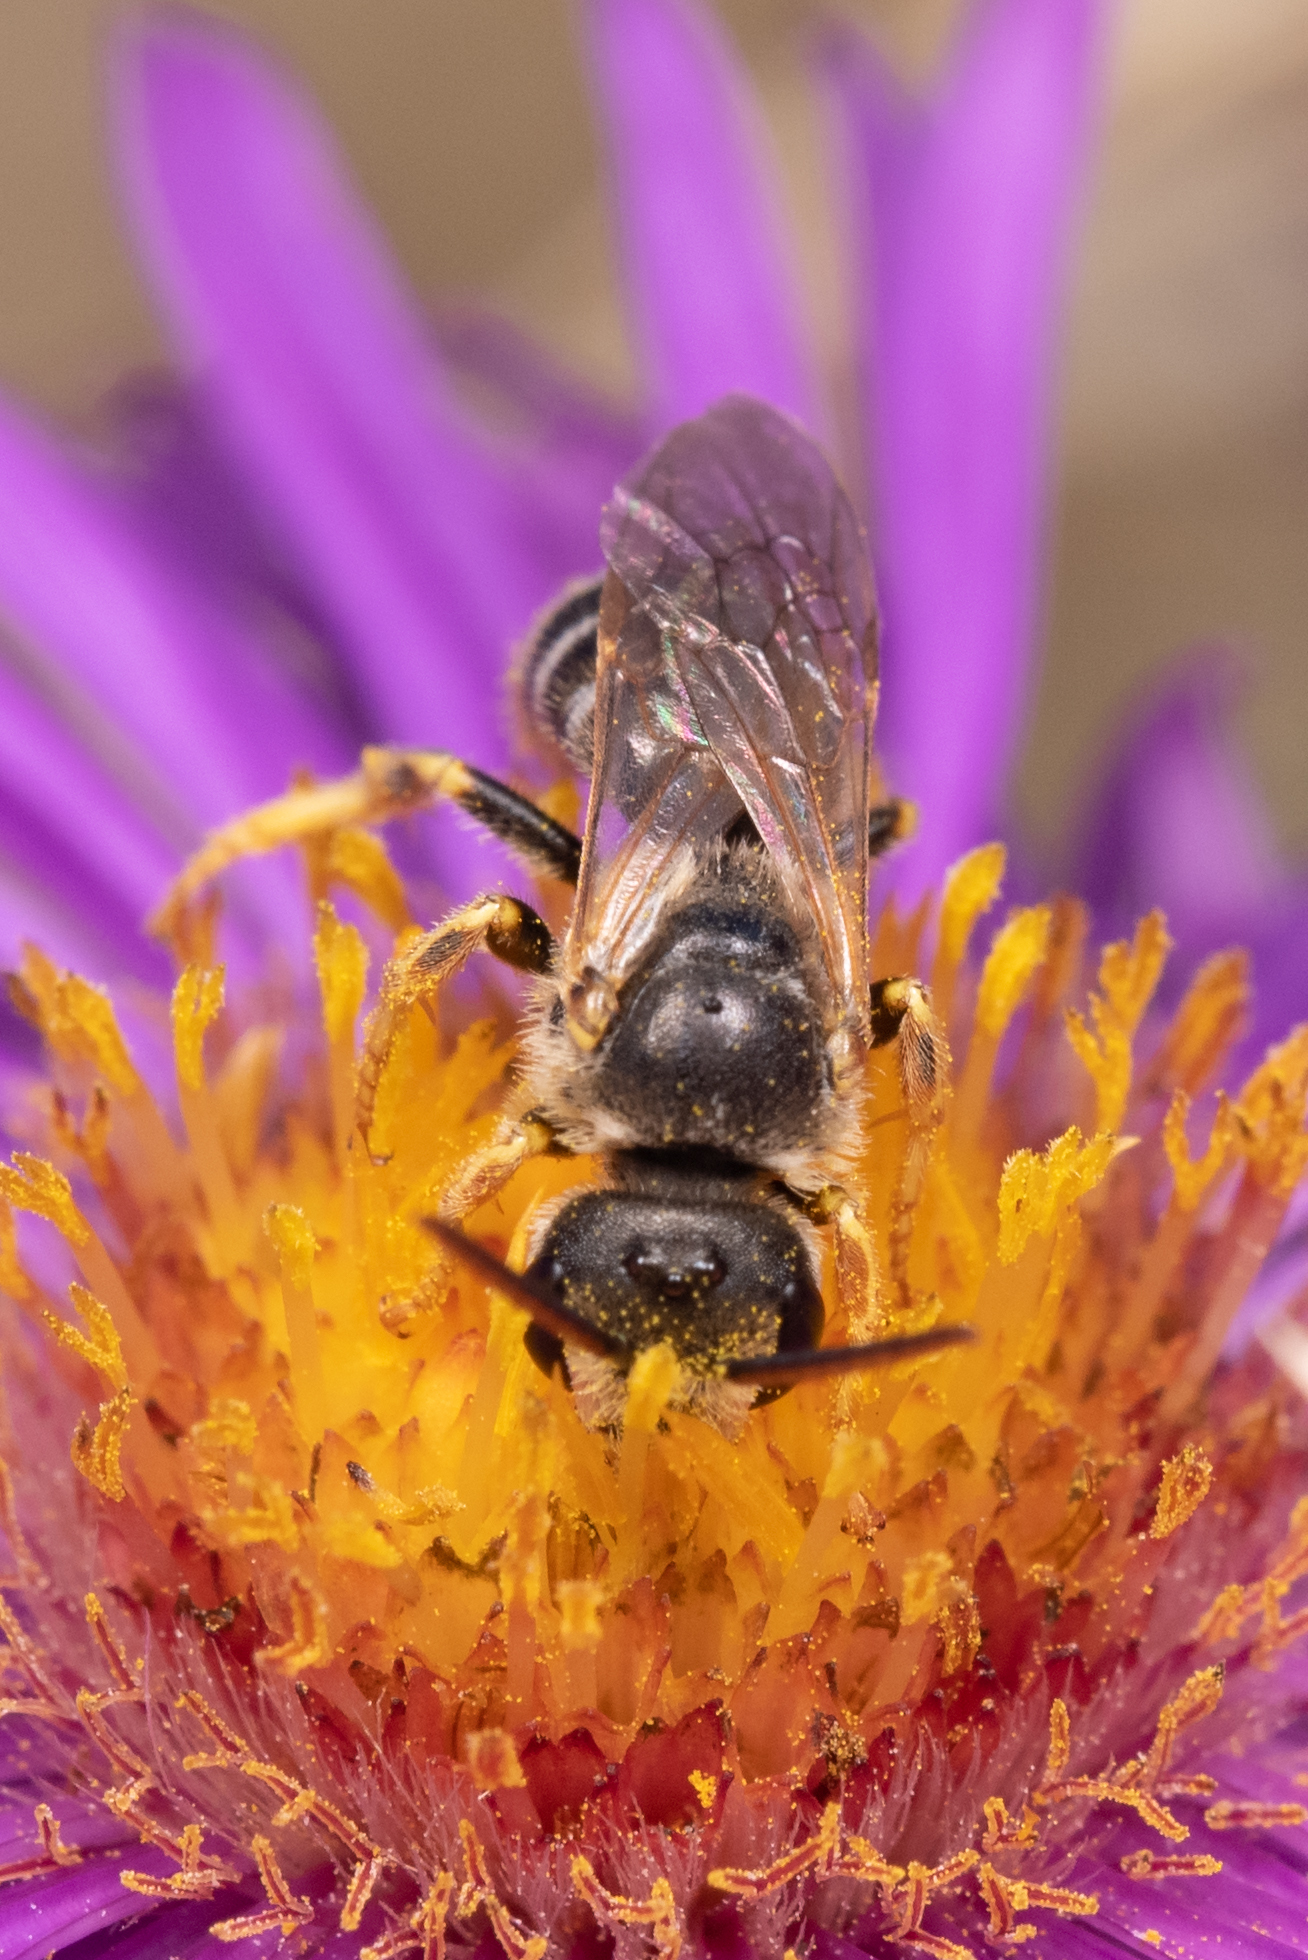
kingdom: Animalia
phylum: Arthropoda
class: Insecta
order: Hymenoptera
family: Halictidae
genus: Halictus
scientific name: Halictus ligatus
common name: Ligated furrow bee
